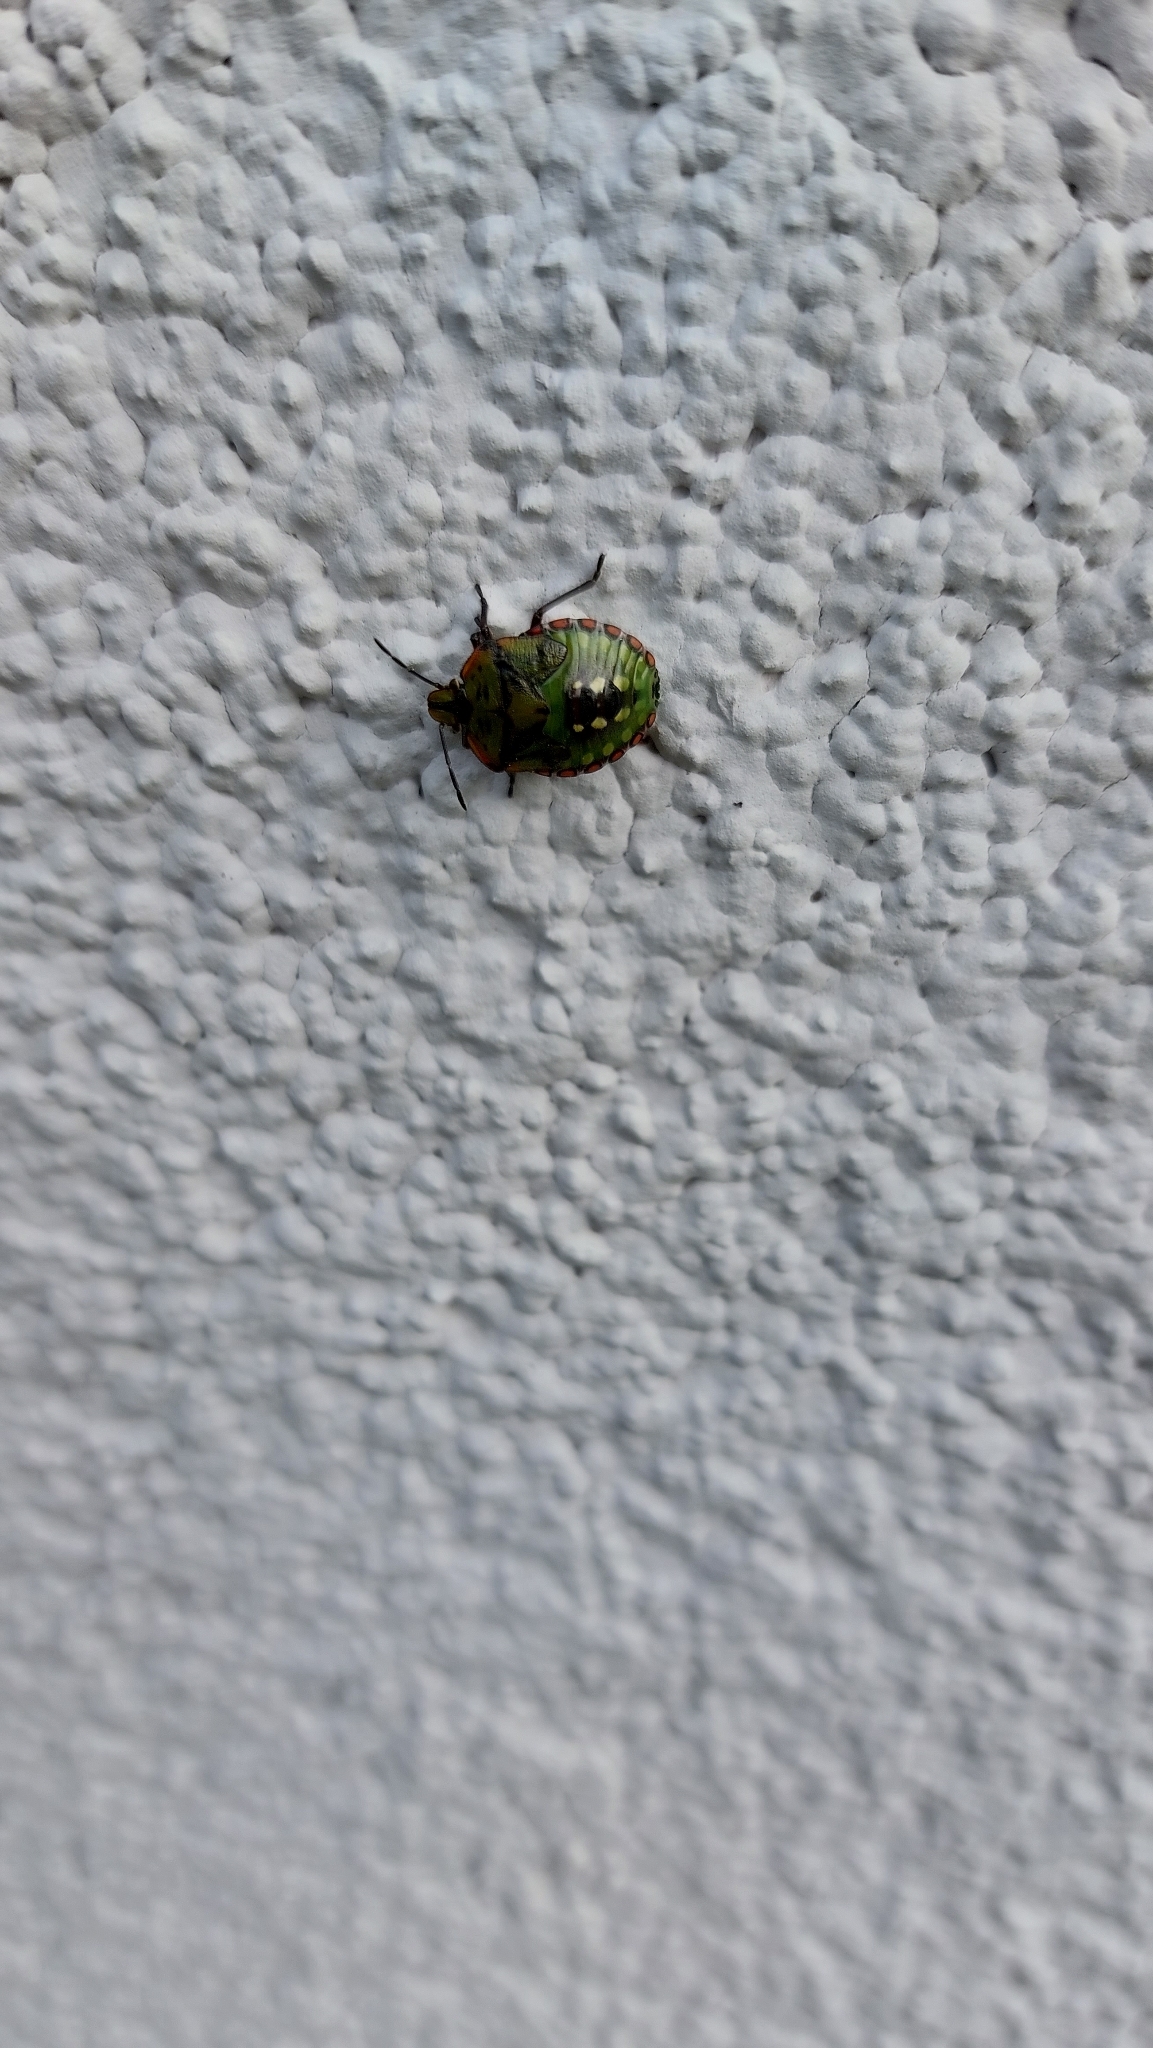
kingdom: Animalia
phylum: Arthropoda
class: Insecta
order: Hemiptera
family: Pentatomidae
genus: Nezara
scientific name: Nezara viridula
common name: Southern green stink bug
